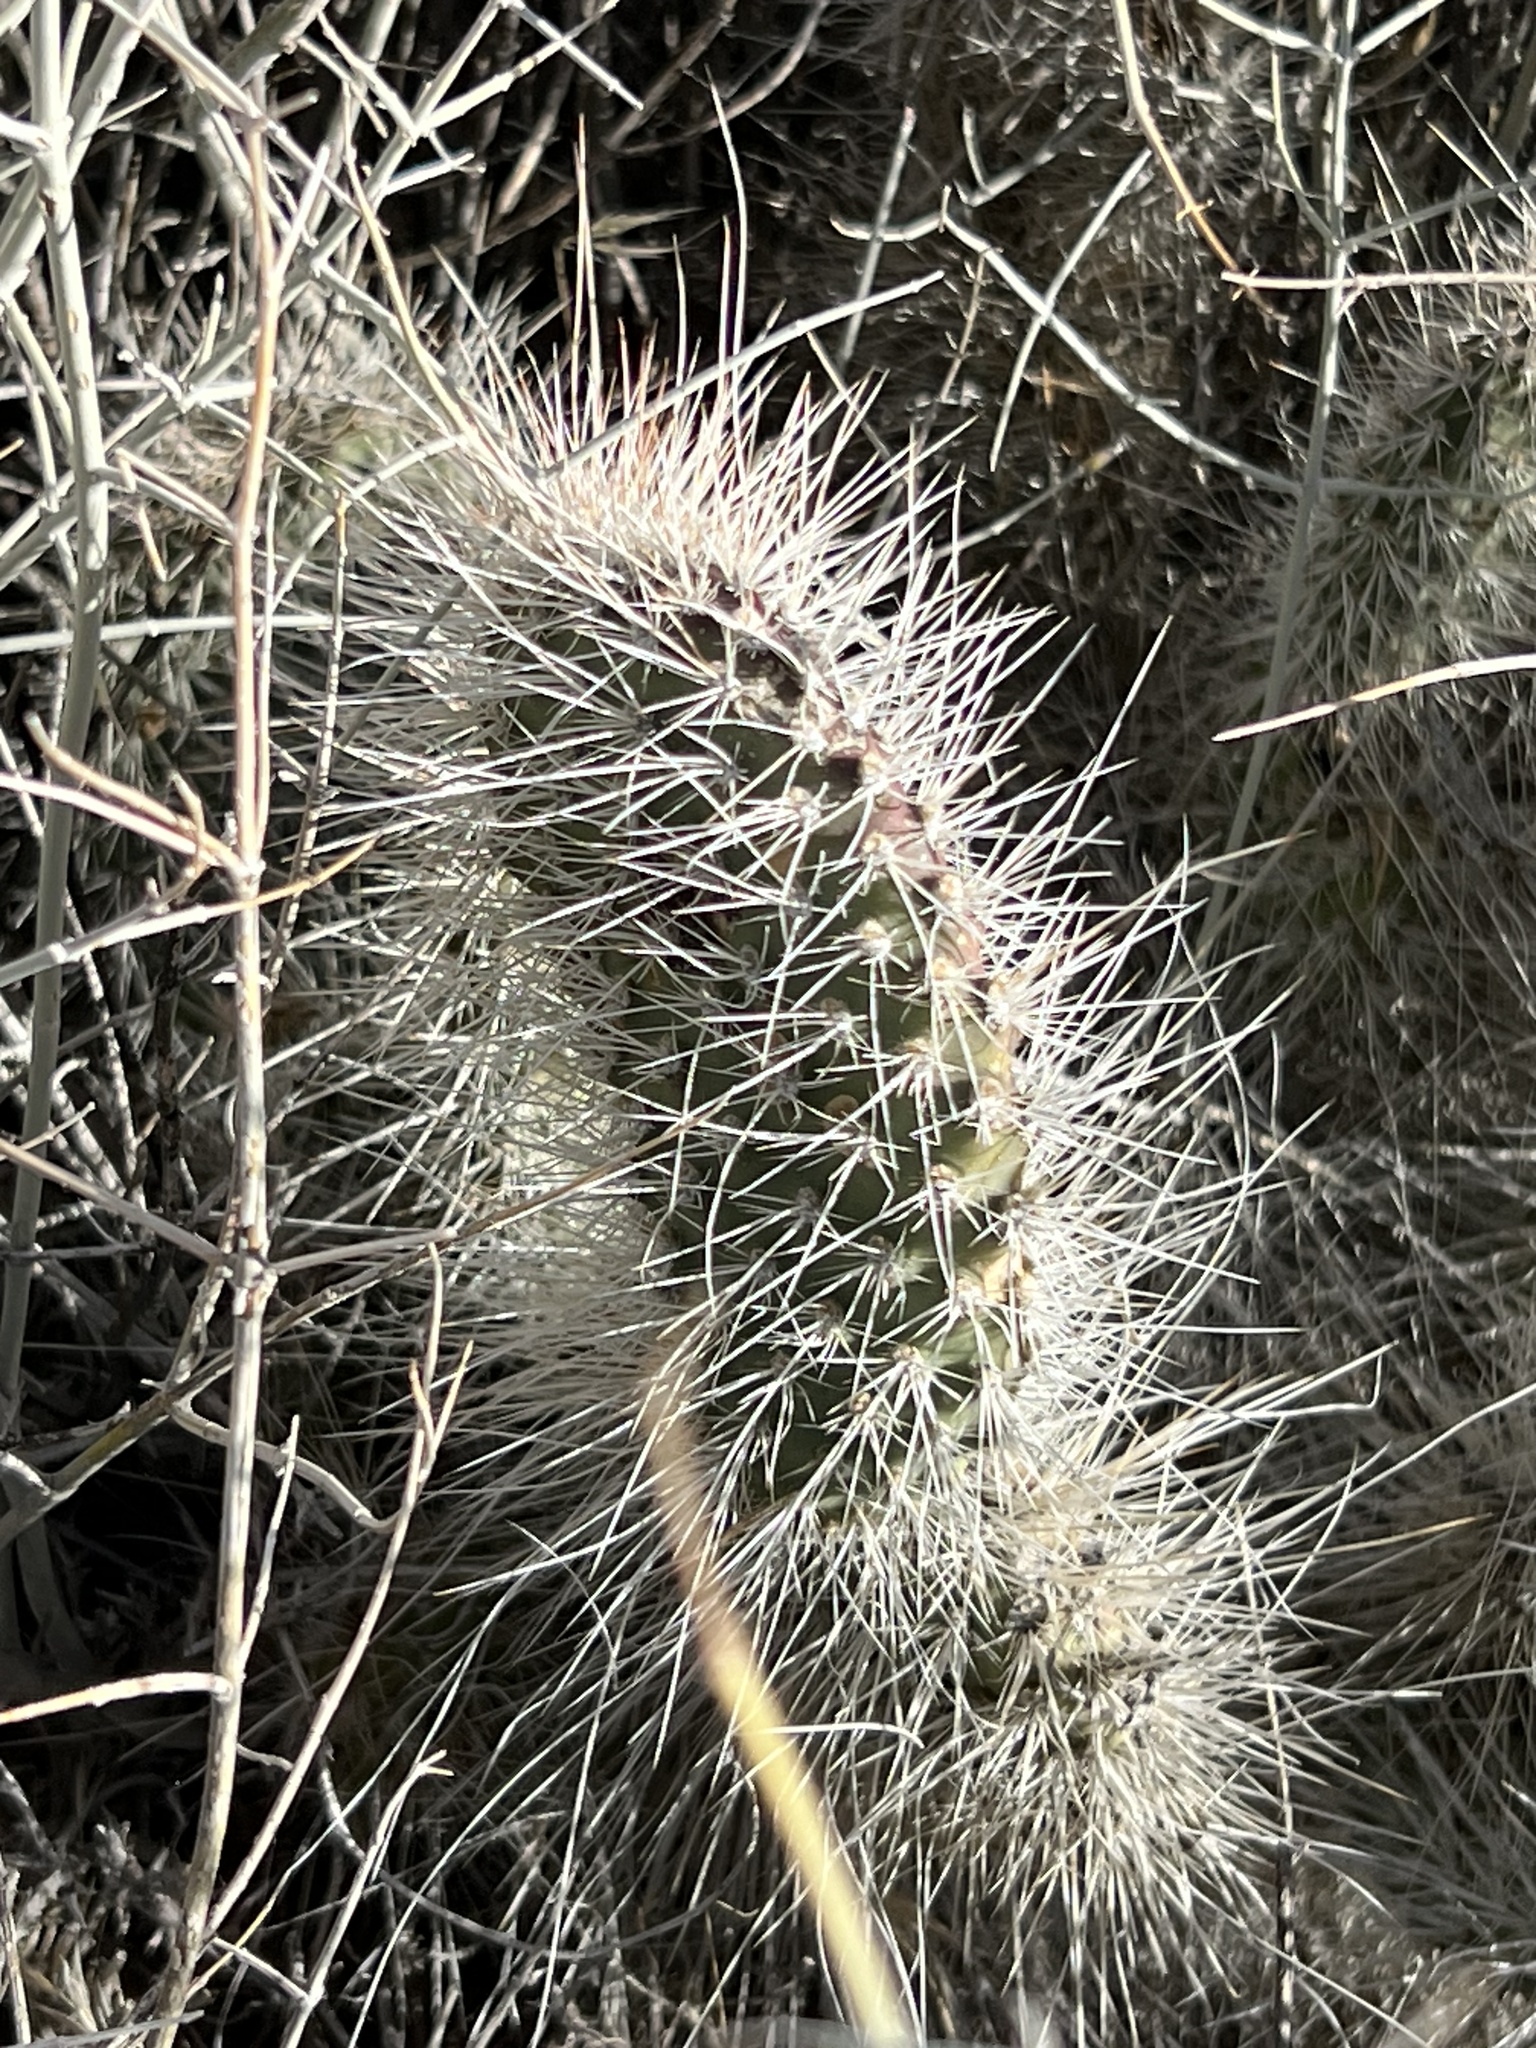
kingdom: Plantae
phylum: Tracheophyta
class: Magnoliopsida
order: Caryophyllales
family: Cactaceae
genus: Opuntia
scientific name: Opuntia polyacantha
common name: Plains prickly-pear
